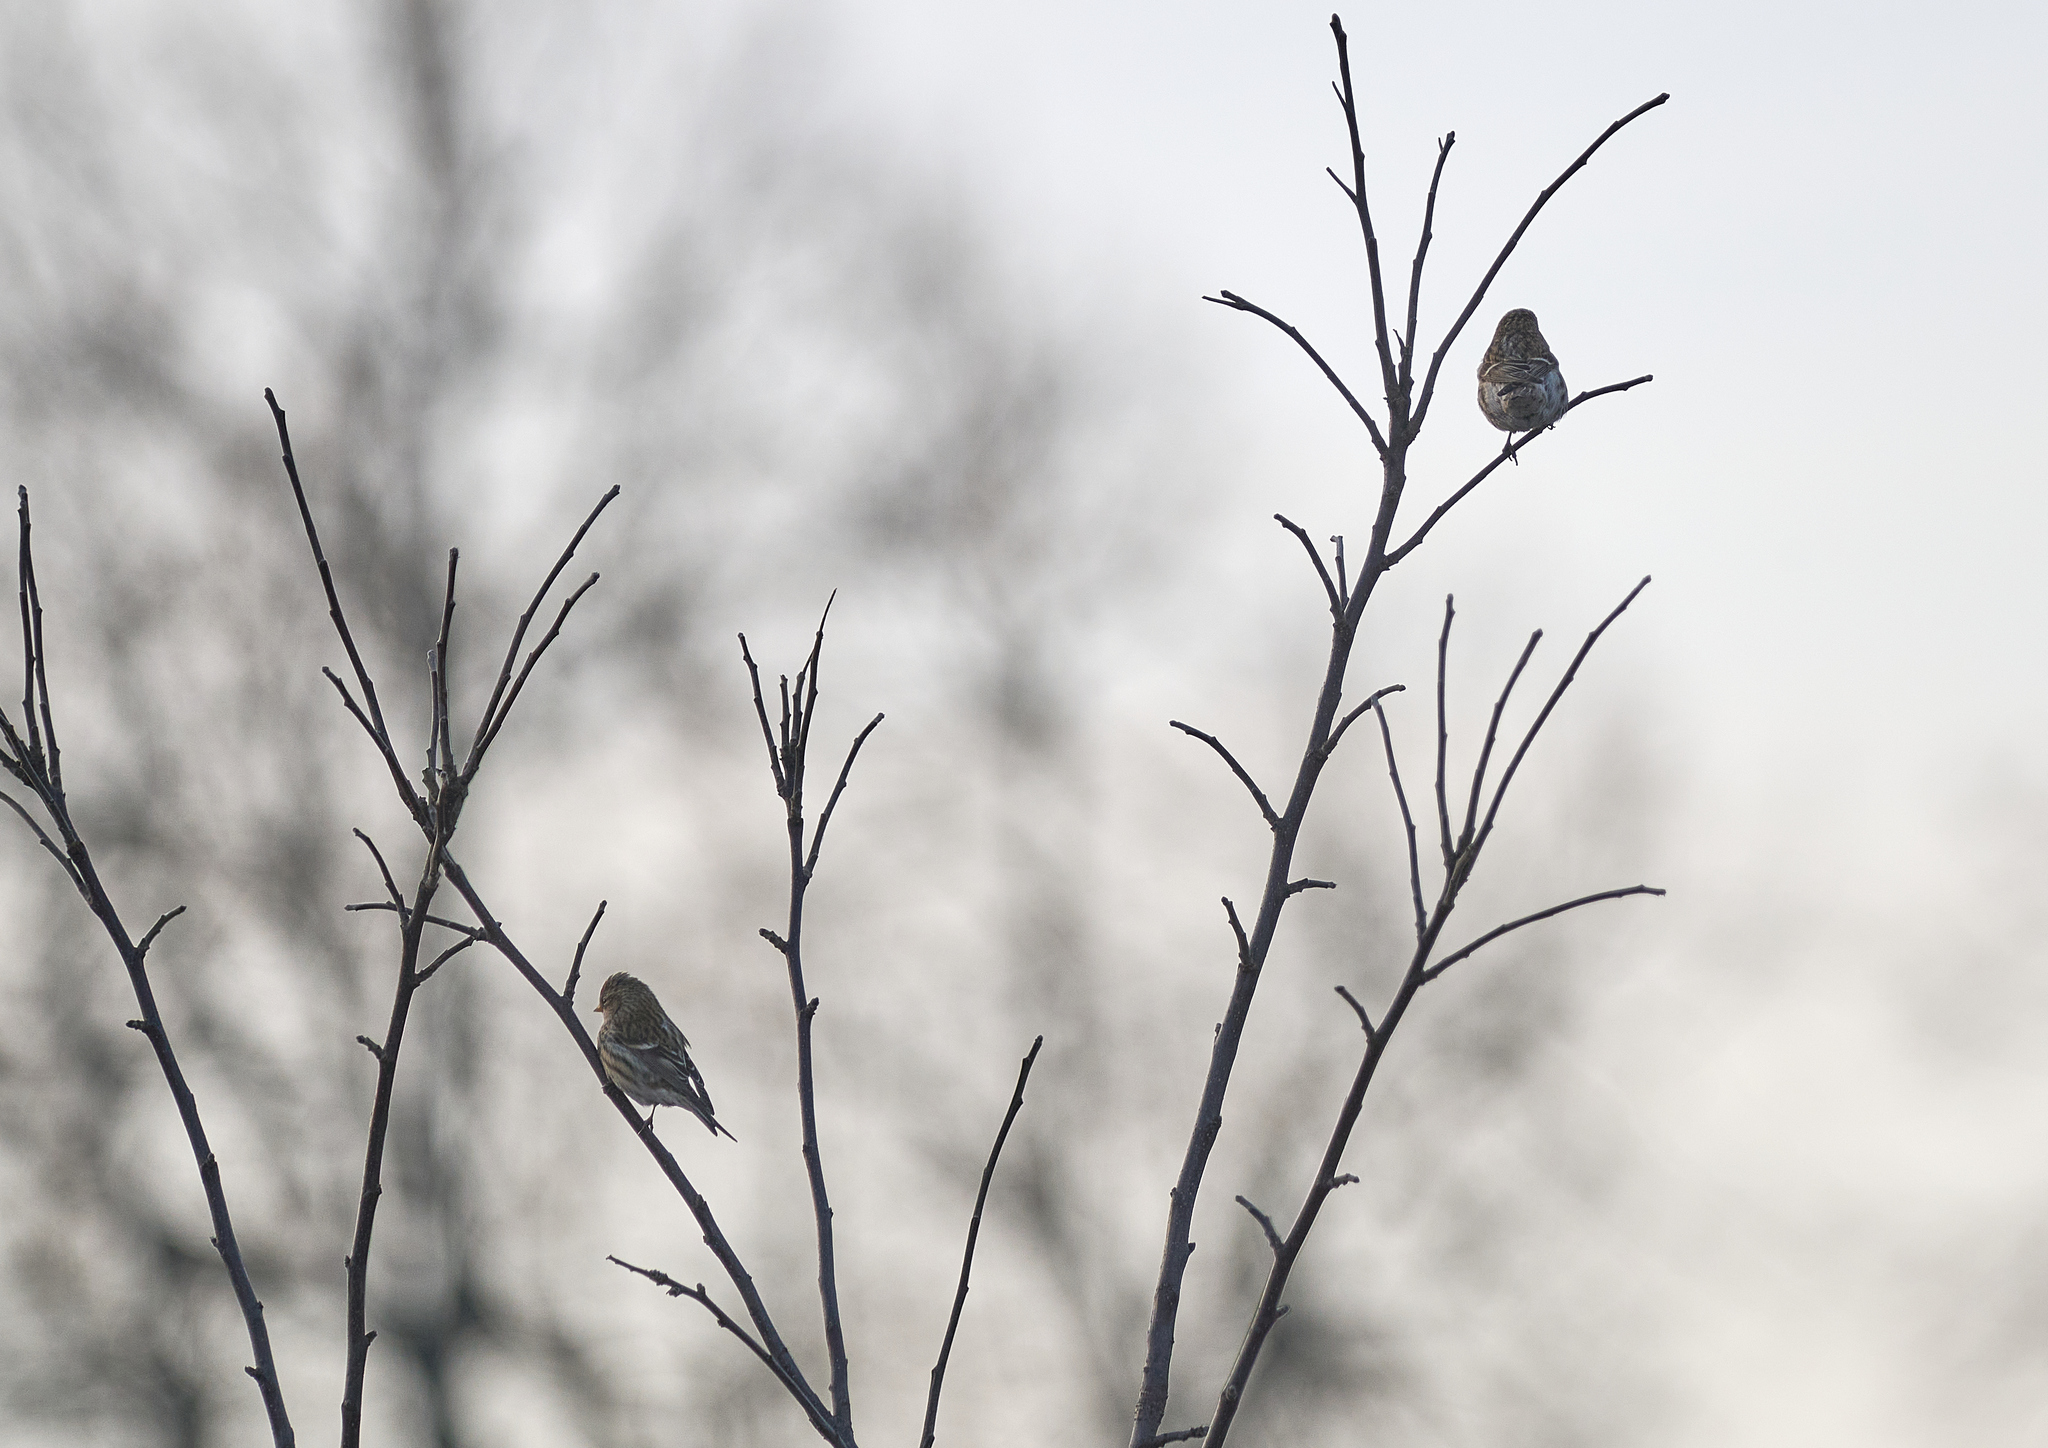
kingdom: Animalia
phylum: Chordata
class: Aves
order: Passeriformes
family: Fringillidae
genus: Acanthis
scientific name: Acanthis flammea
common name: Common redpoll
